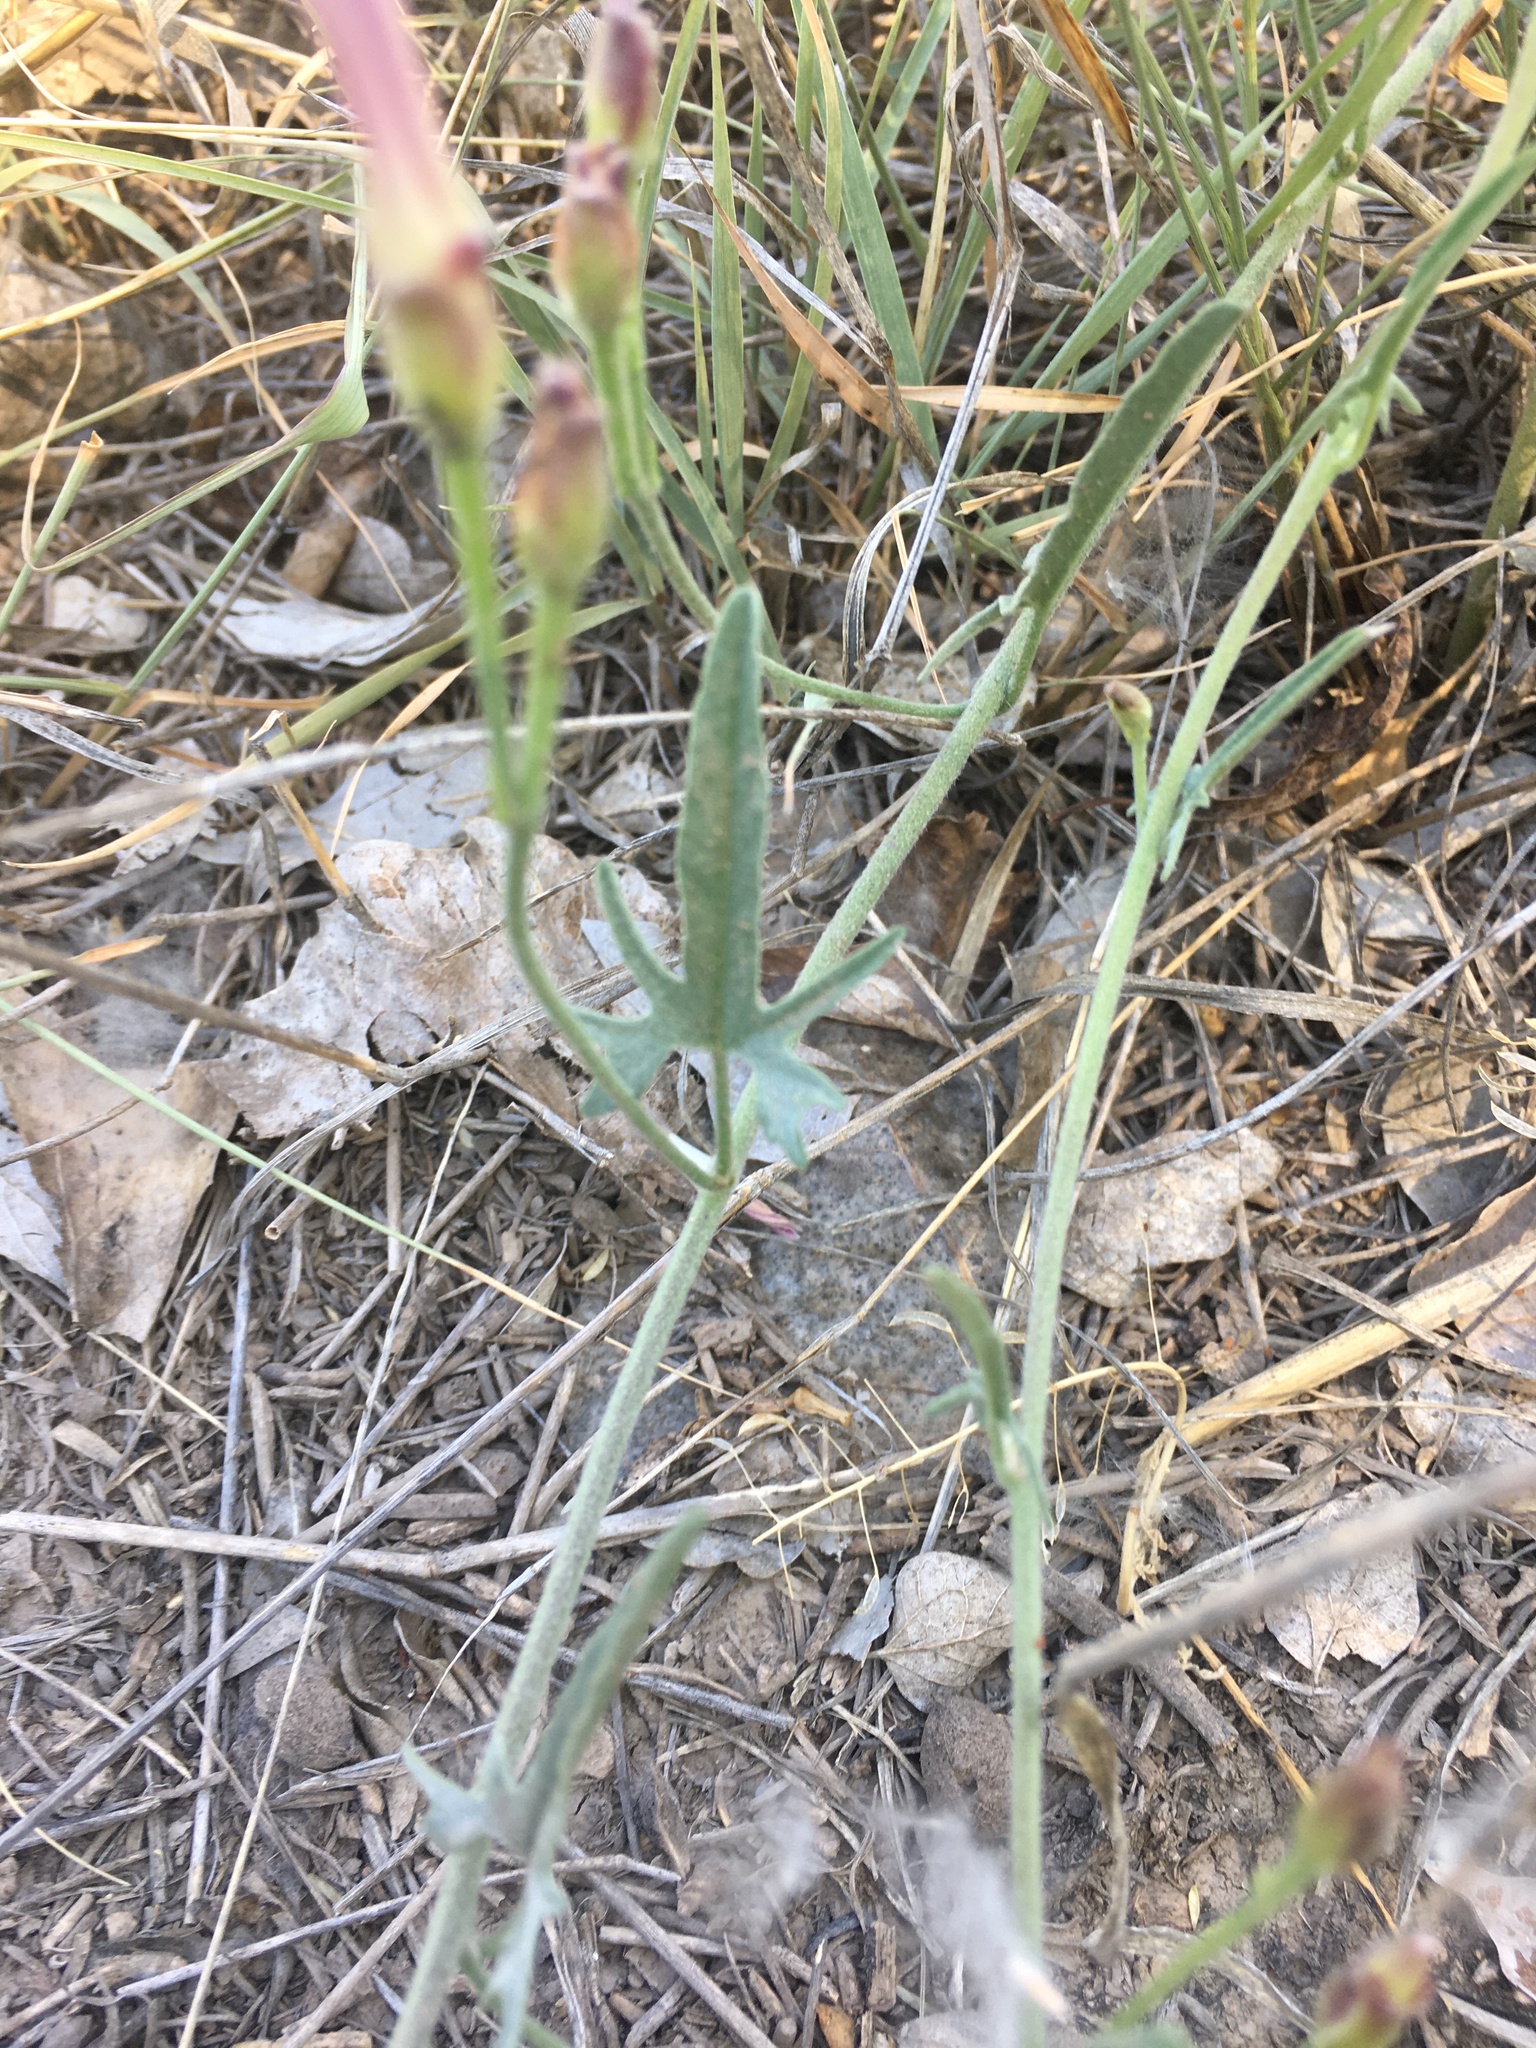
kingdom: Plantae
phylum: Tracheophyta
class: Magnoliopsida
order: Solanales
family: Convolvulaceae
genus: Convolvulus
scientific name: Convolvulus equitans
